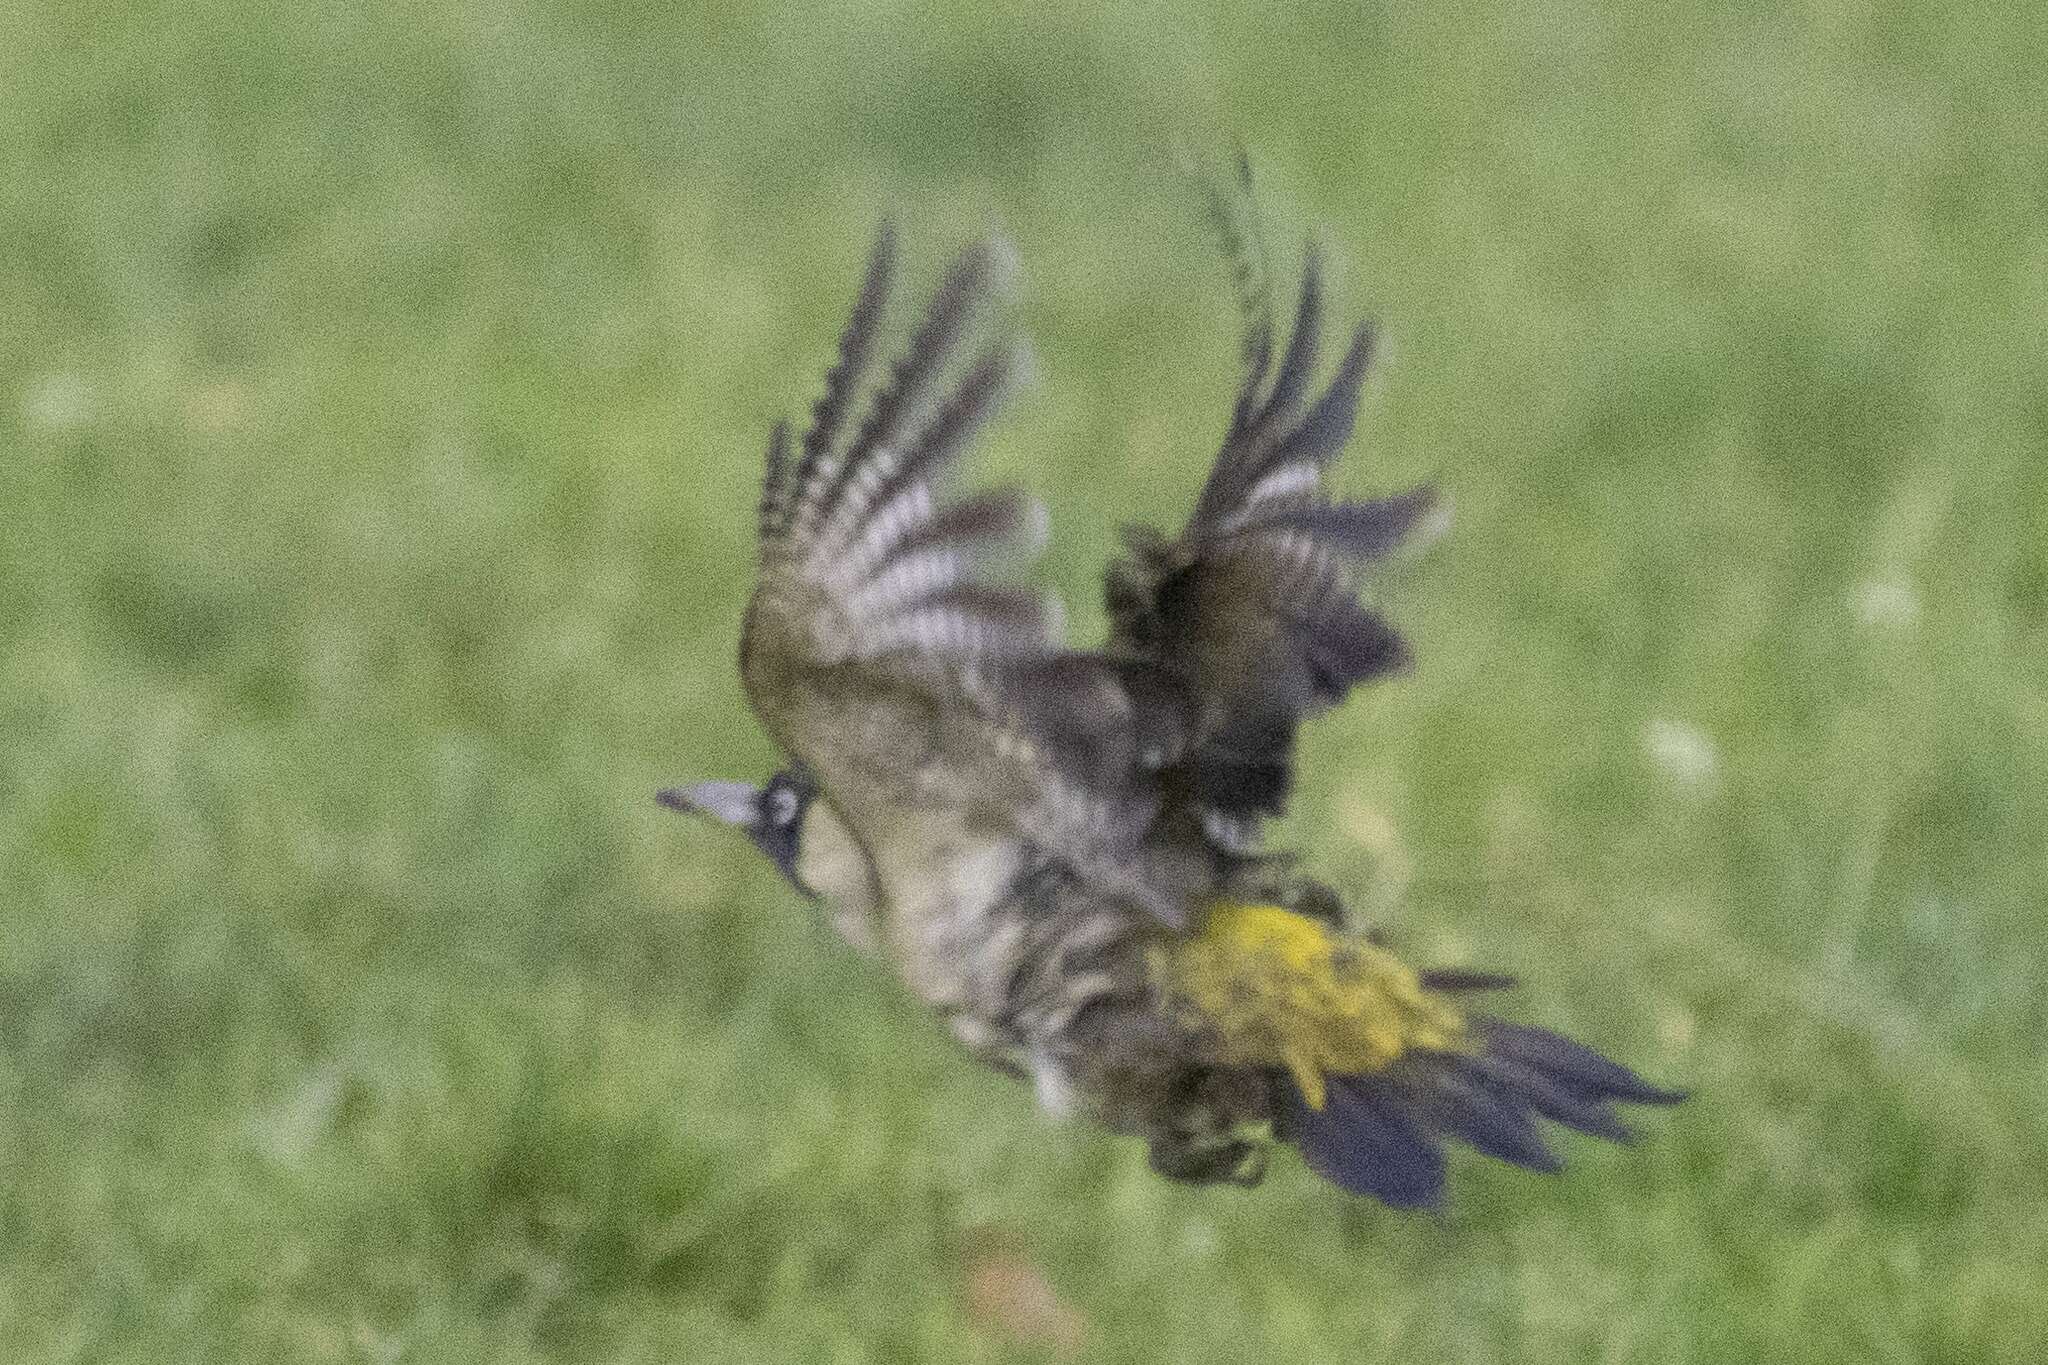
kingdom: Animalia
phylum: Chordata
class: Aves
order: Piciformes
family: Picidae
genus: Picus
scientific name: Picus viridis
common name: European green woodpecker
